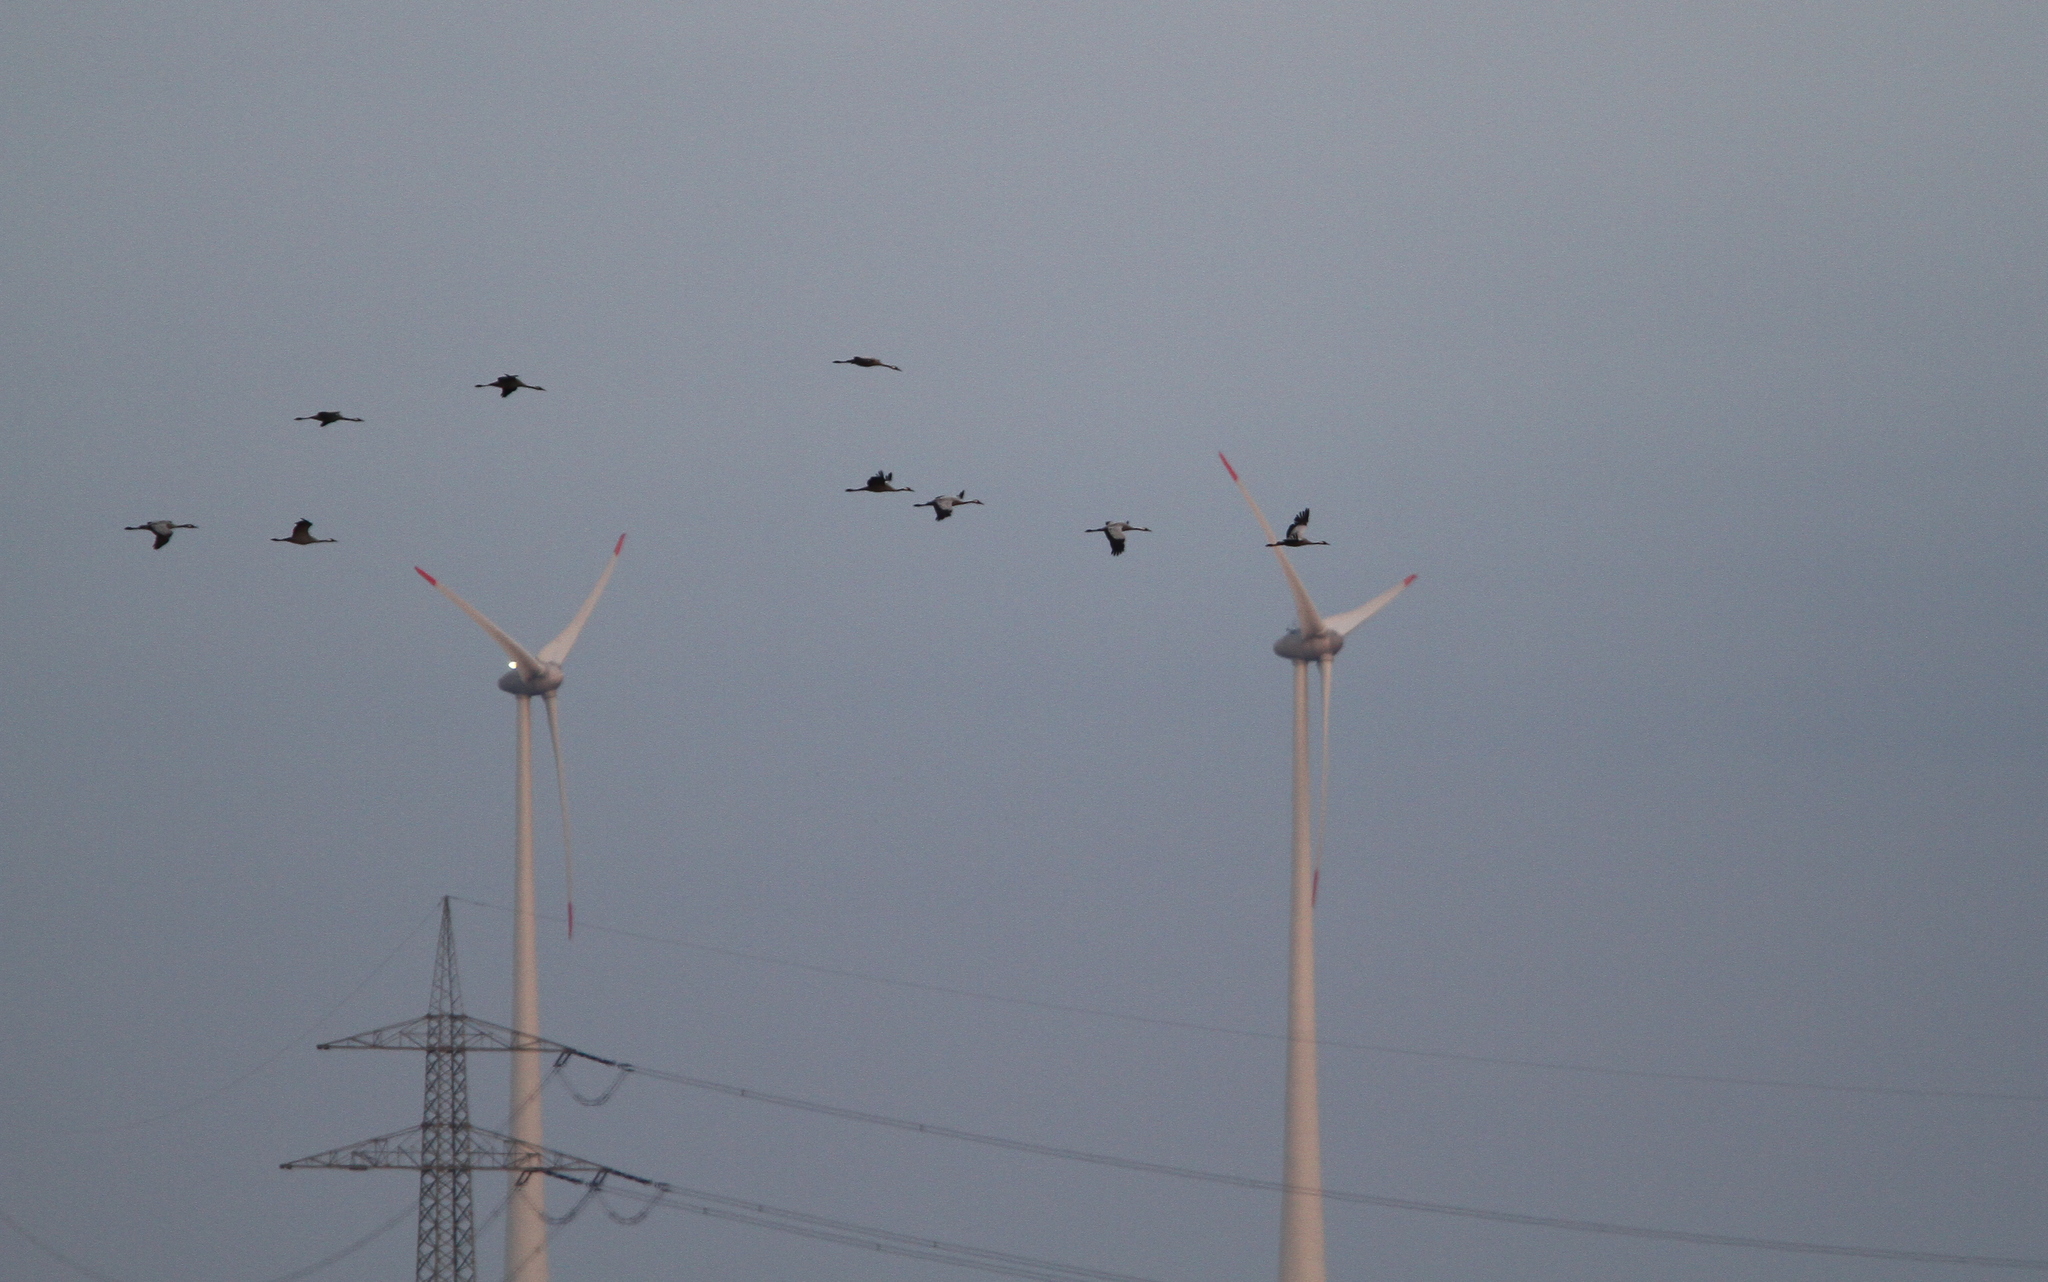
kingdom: Animalia
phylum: Chordata
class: Aves
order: Gruiformes
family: Gruidae
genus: Grus
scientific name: Grus grus
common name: Common crane
